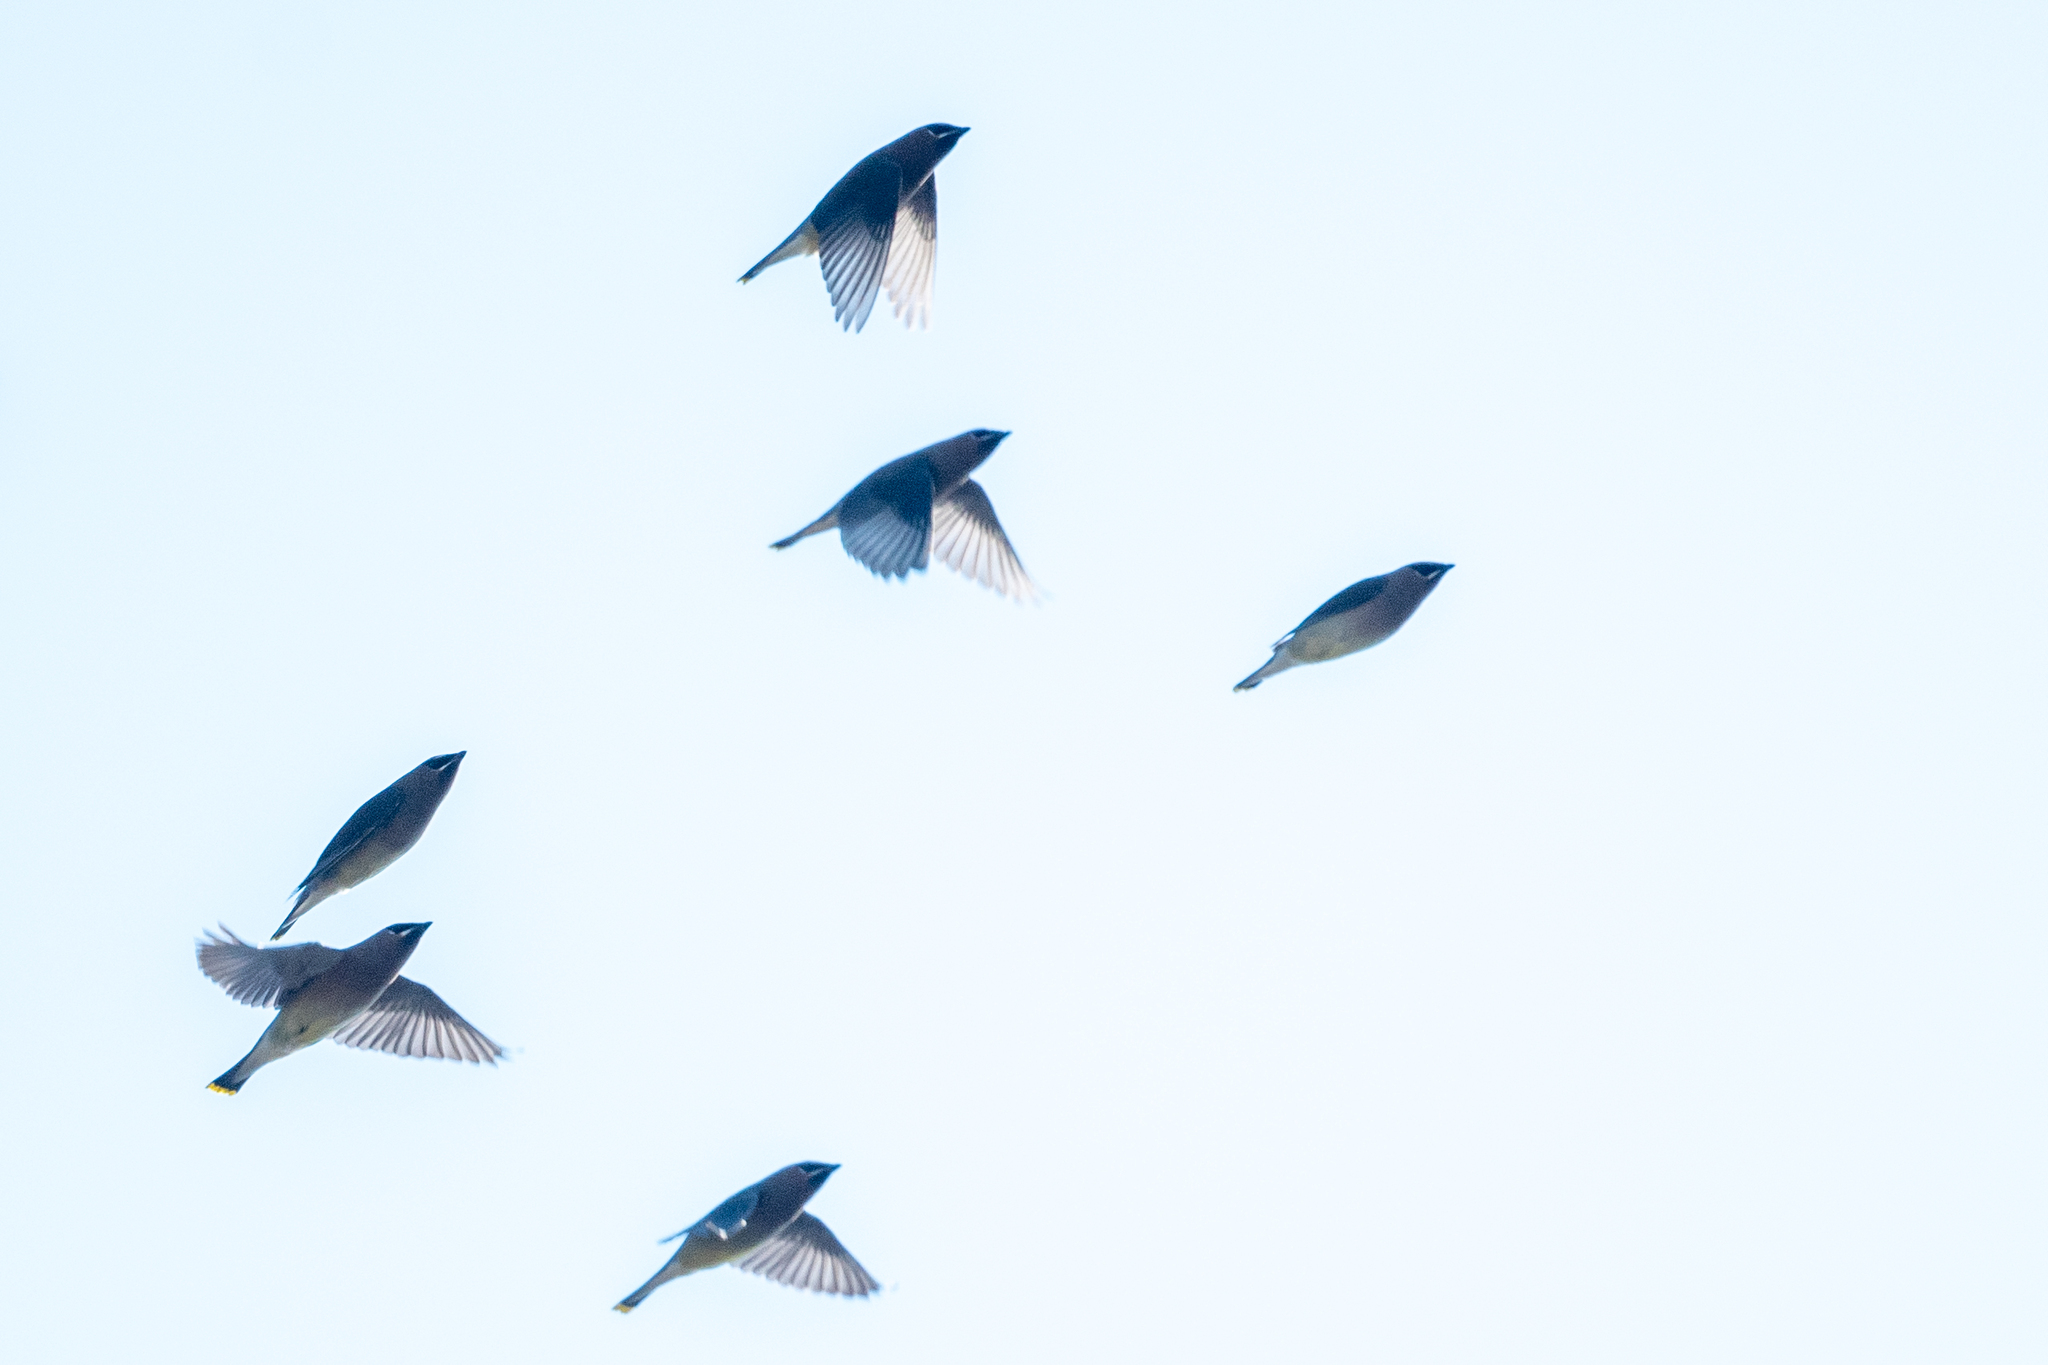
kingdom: Animalia
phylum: Chordata
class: Aves
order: Passeriformes
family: Bombycillidae
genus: Bombycilla
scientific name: Bombycilla cedrorum
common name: Cedar waxwing
